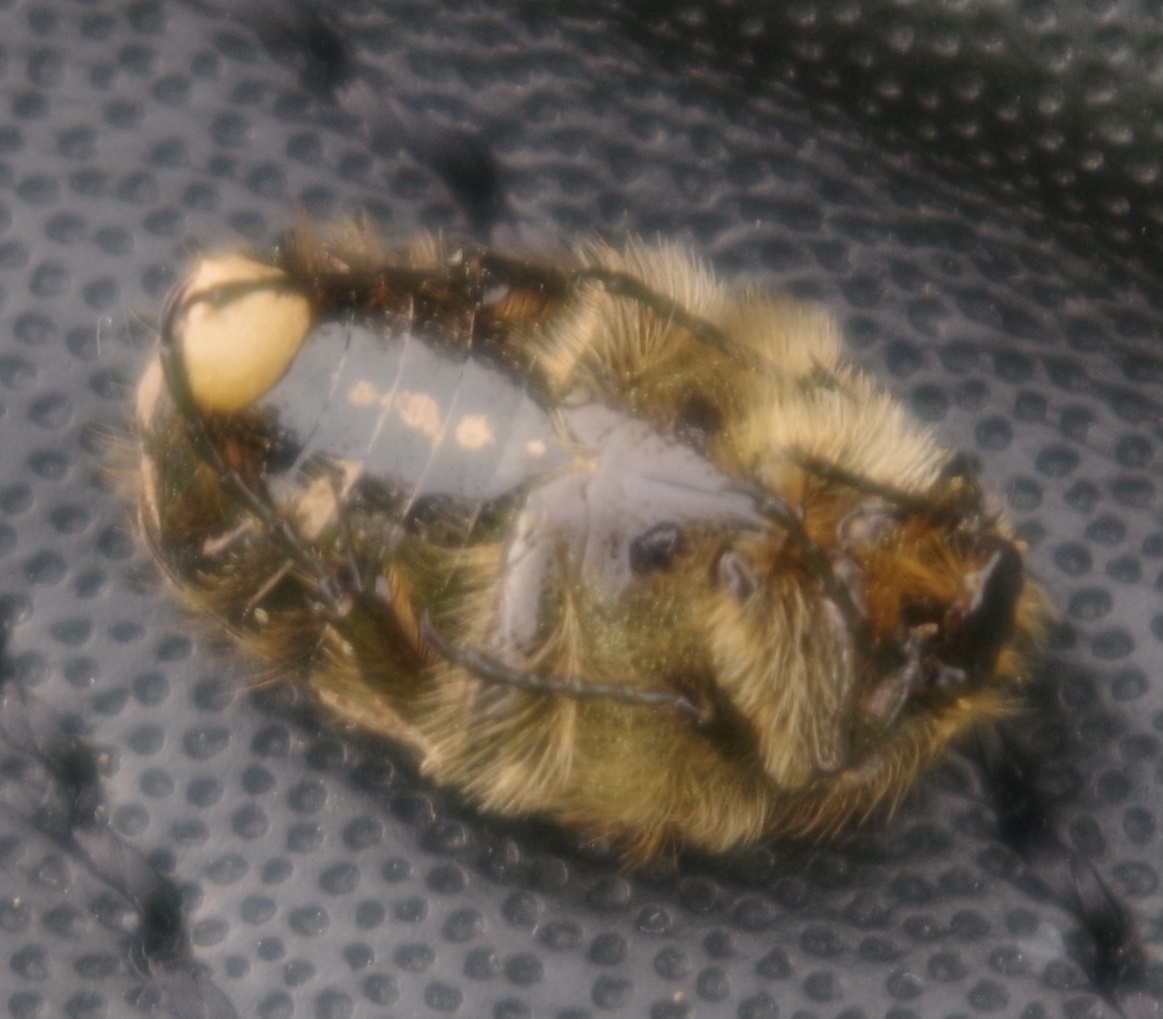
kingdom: Animalia
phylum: Arthropoda
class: Insecta
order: Coleoptera
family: Scarabaeidae
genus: Oxythyrea
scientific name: Oxythyrea funesta
